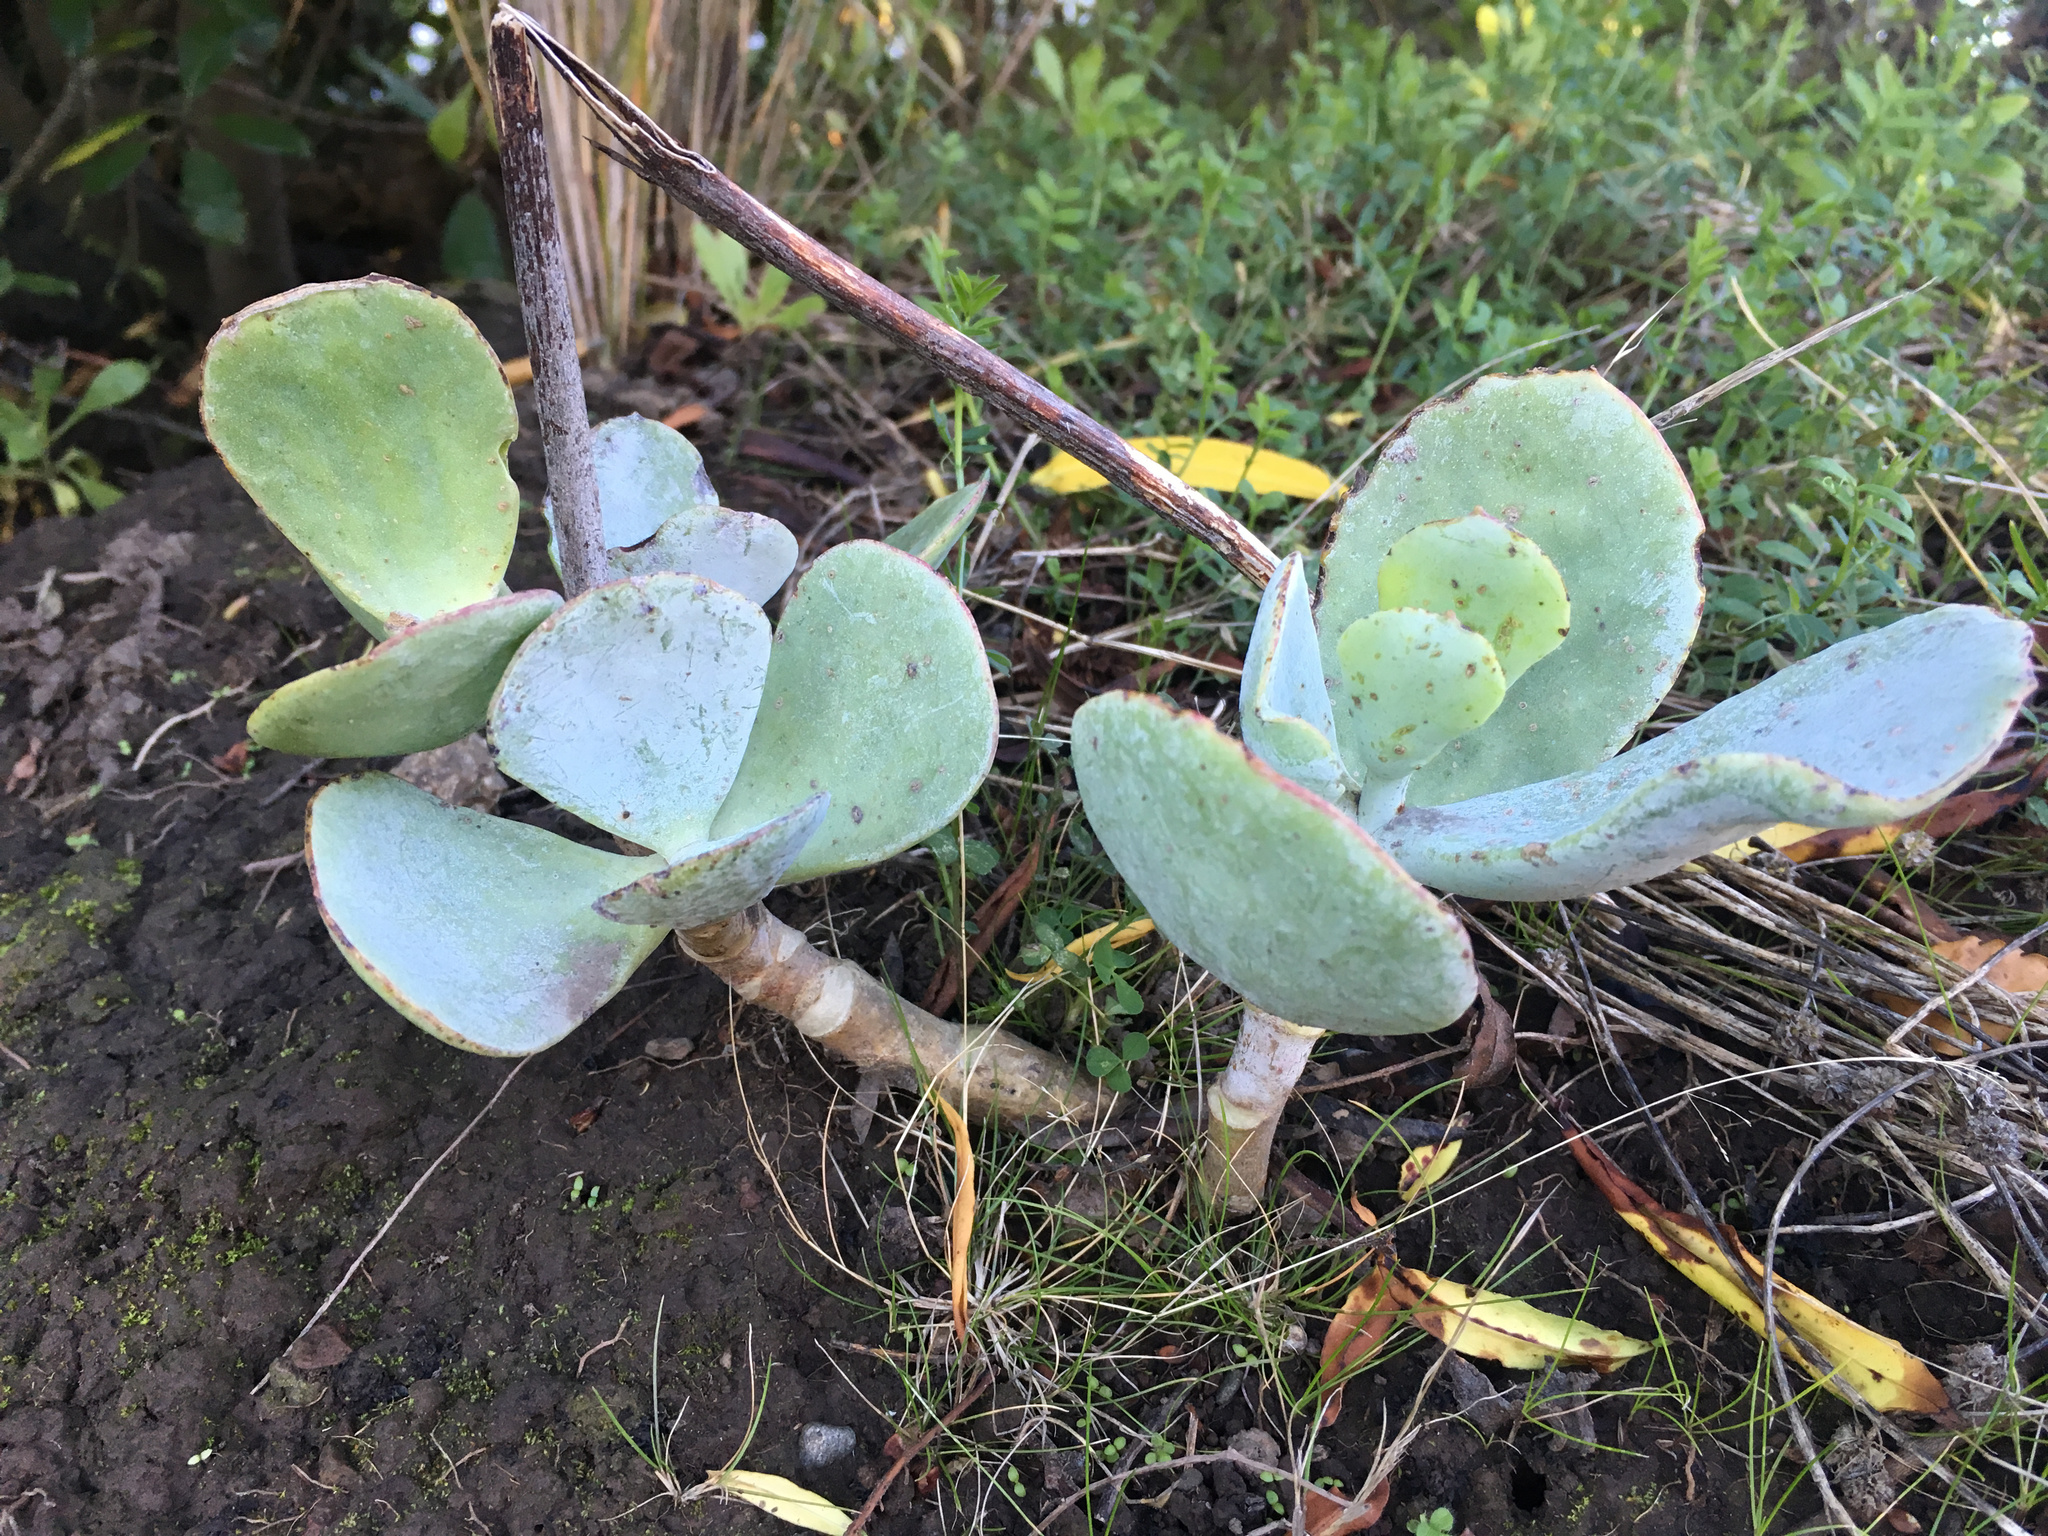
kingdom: Plantae
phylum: Tracheophyta
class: Magnoliopsida
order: Saxifragales
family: Crassulaceae
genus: Cotyledon
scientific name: Cotyledon orbiculata
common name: Pig's ear
